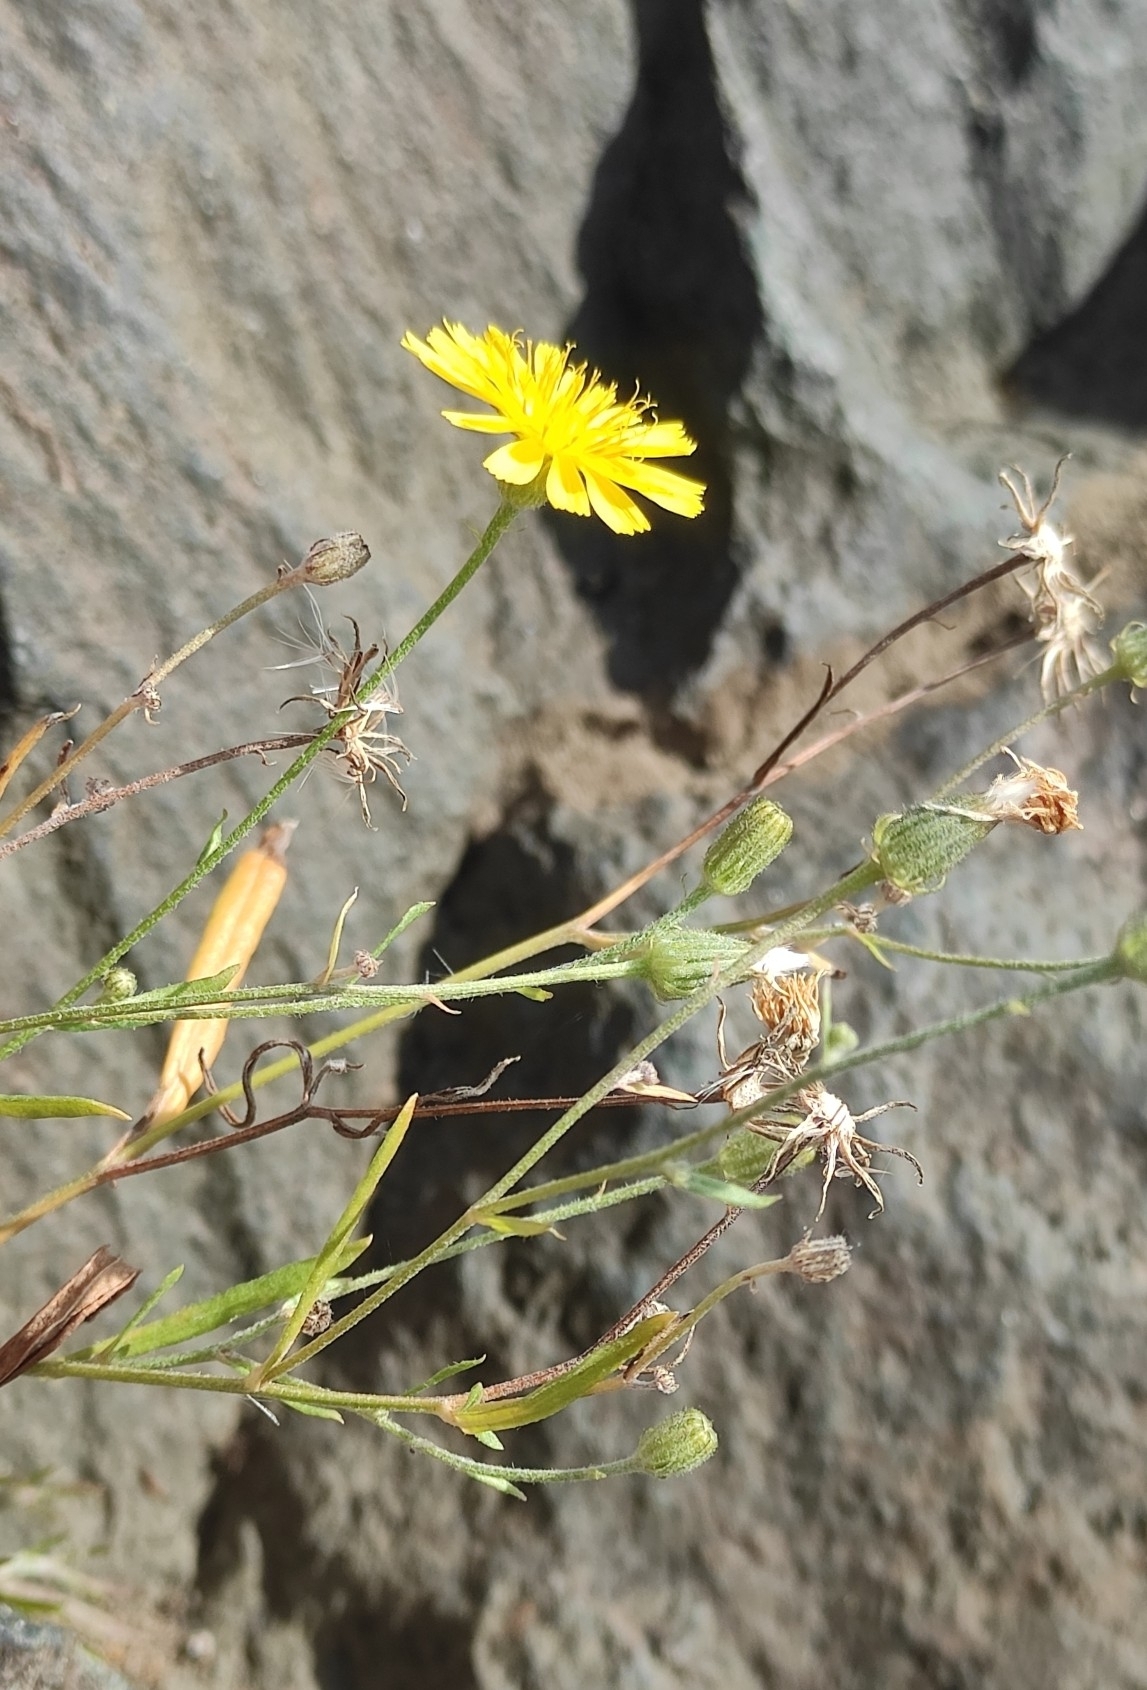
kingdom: Plantae
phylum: Tracheophyta
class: Magnoliopsida
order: Asterales
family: Asteraceae
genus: Crepis
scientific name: Crepis tectorum
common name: Narrow-leaved hawk's-beard
